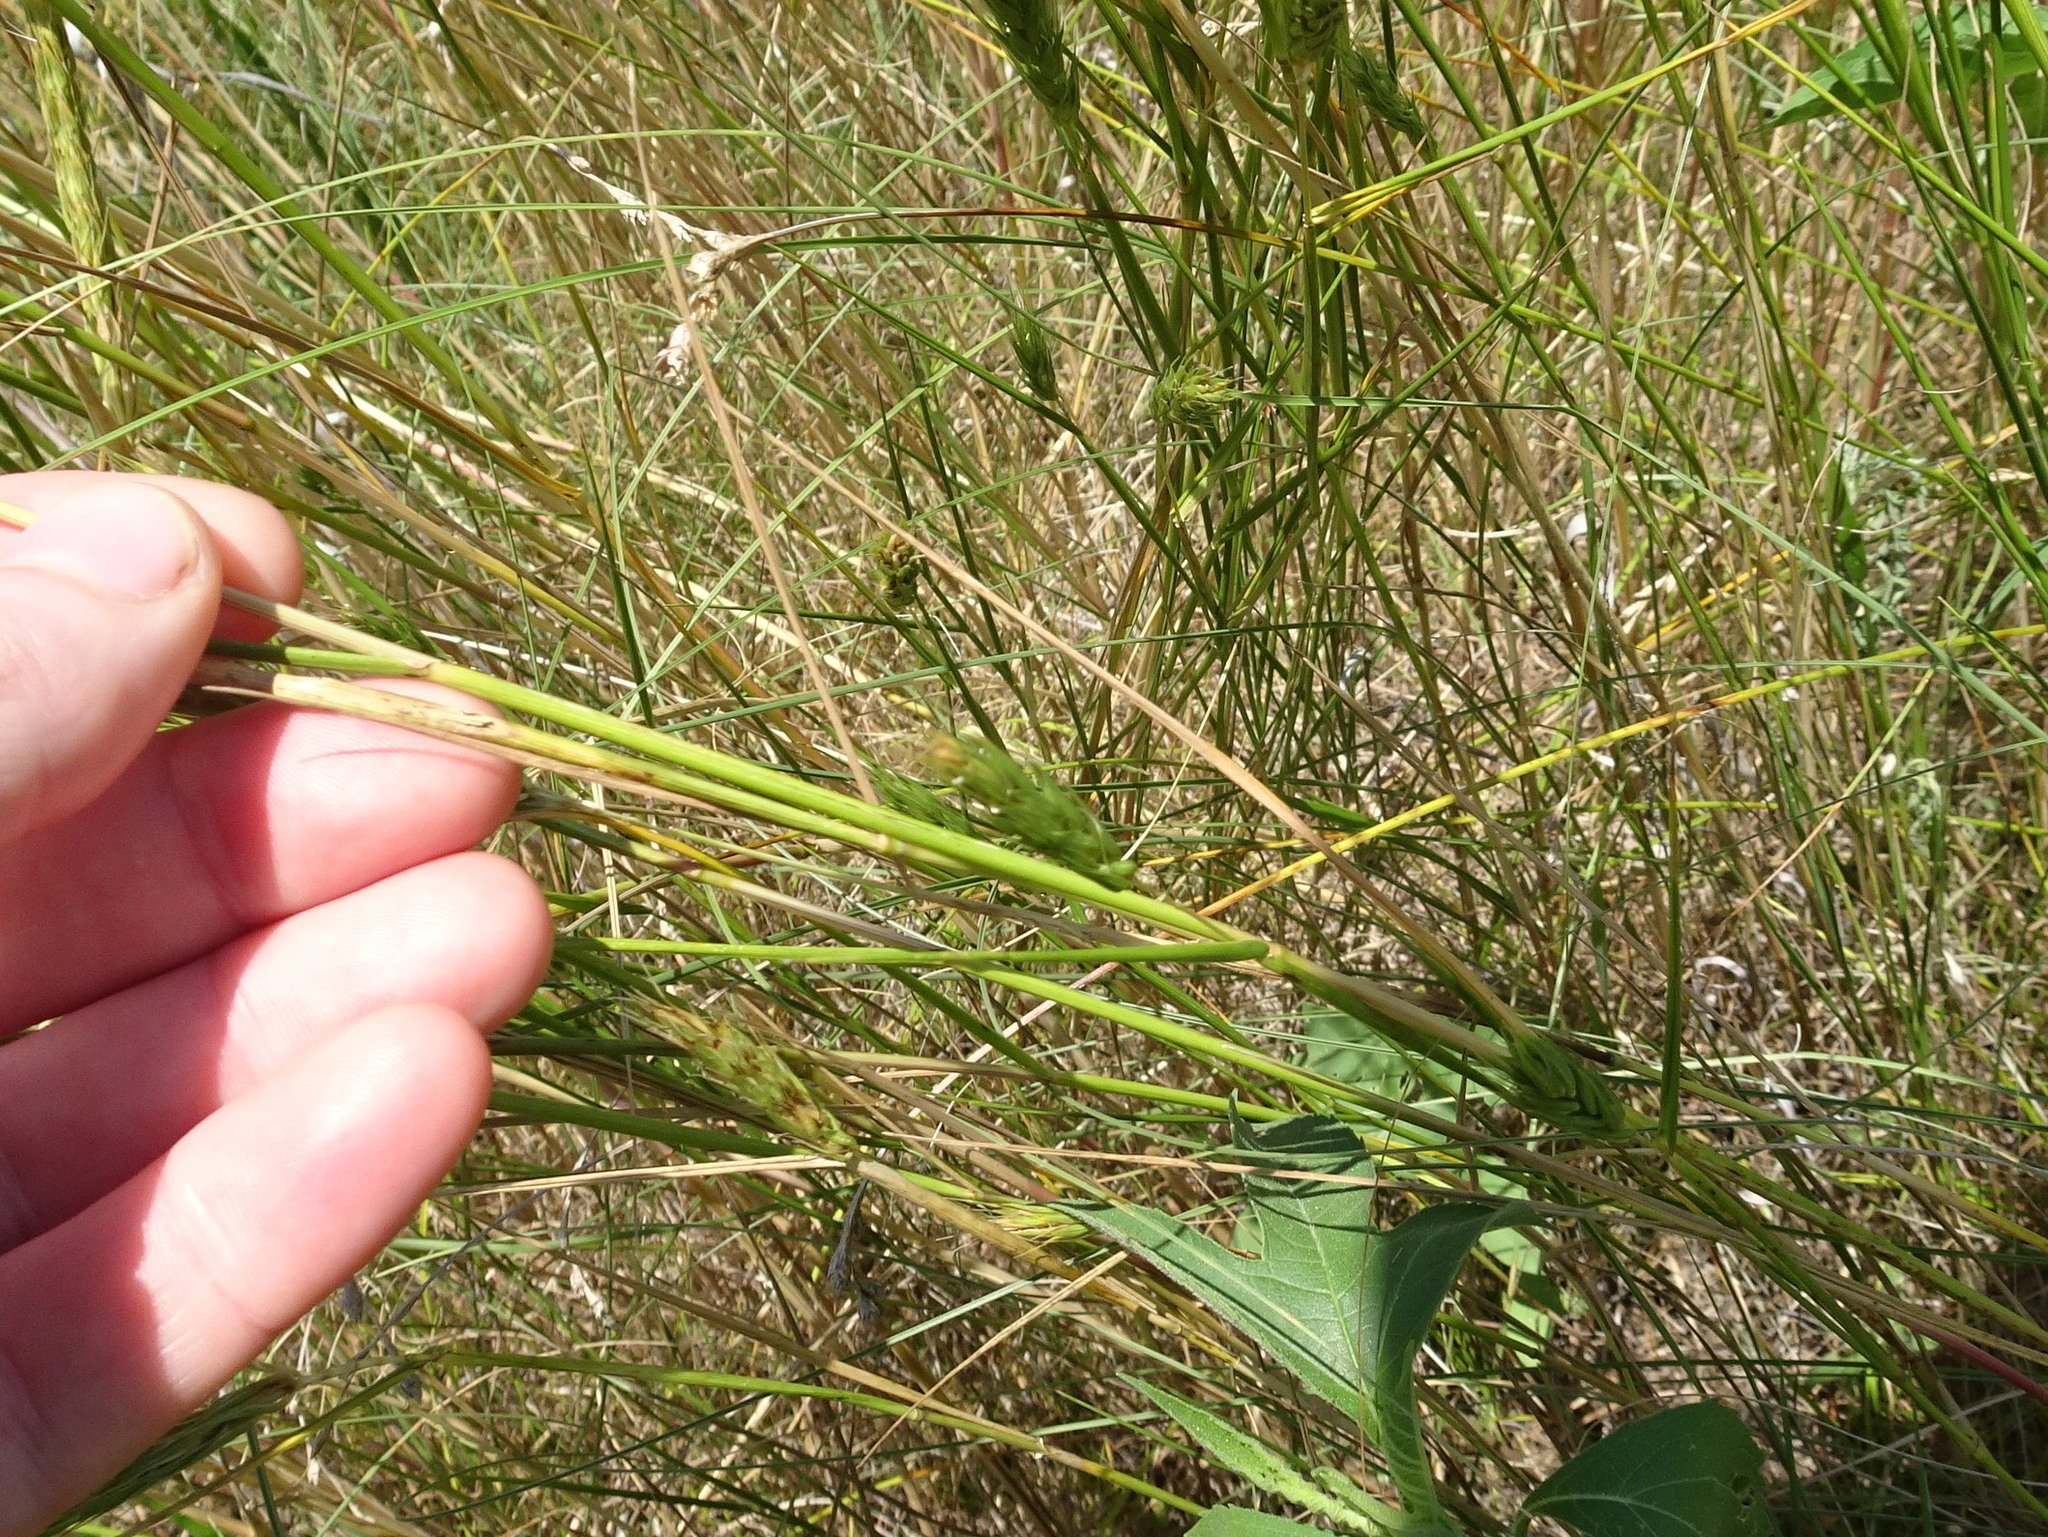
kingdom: Plantae
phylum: Tracheophyta
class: Liliopsida
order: Poales
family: Poaceae
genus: Elymus
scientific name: Elymus virginicus
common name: Common eastern wildrye
